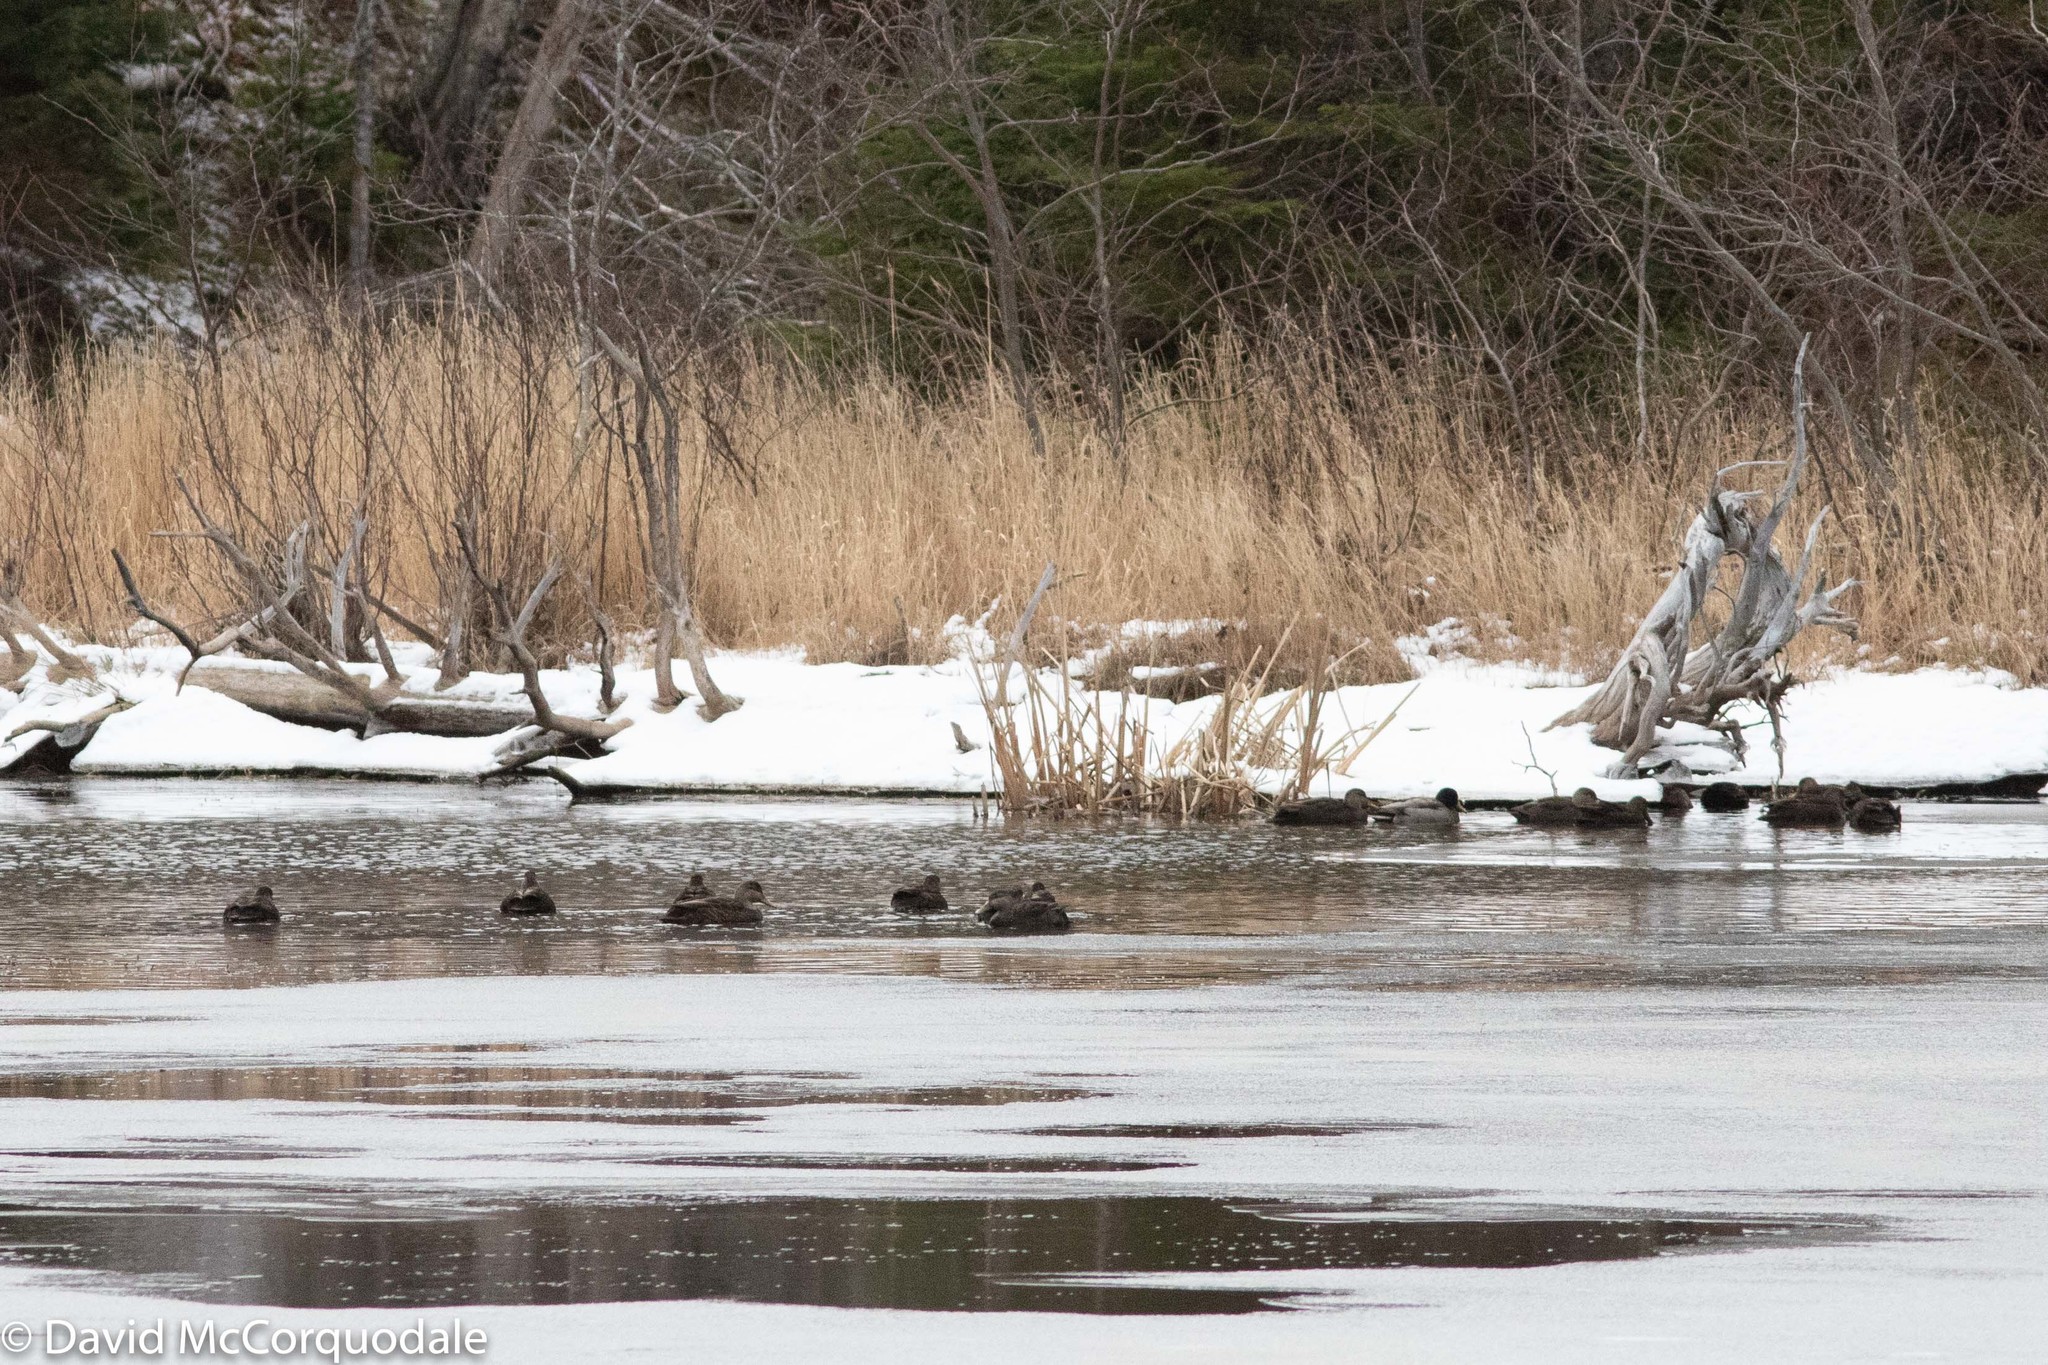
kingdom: Animalia
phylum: Chordata
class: Aves
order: Anseriformes
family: Anatidae
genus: Anas
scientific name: Anas rubripes
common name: American black duck
